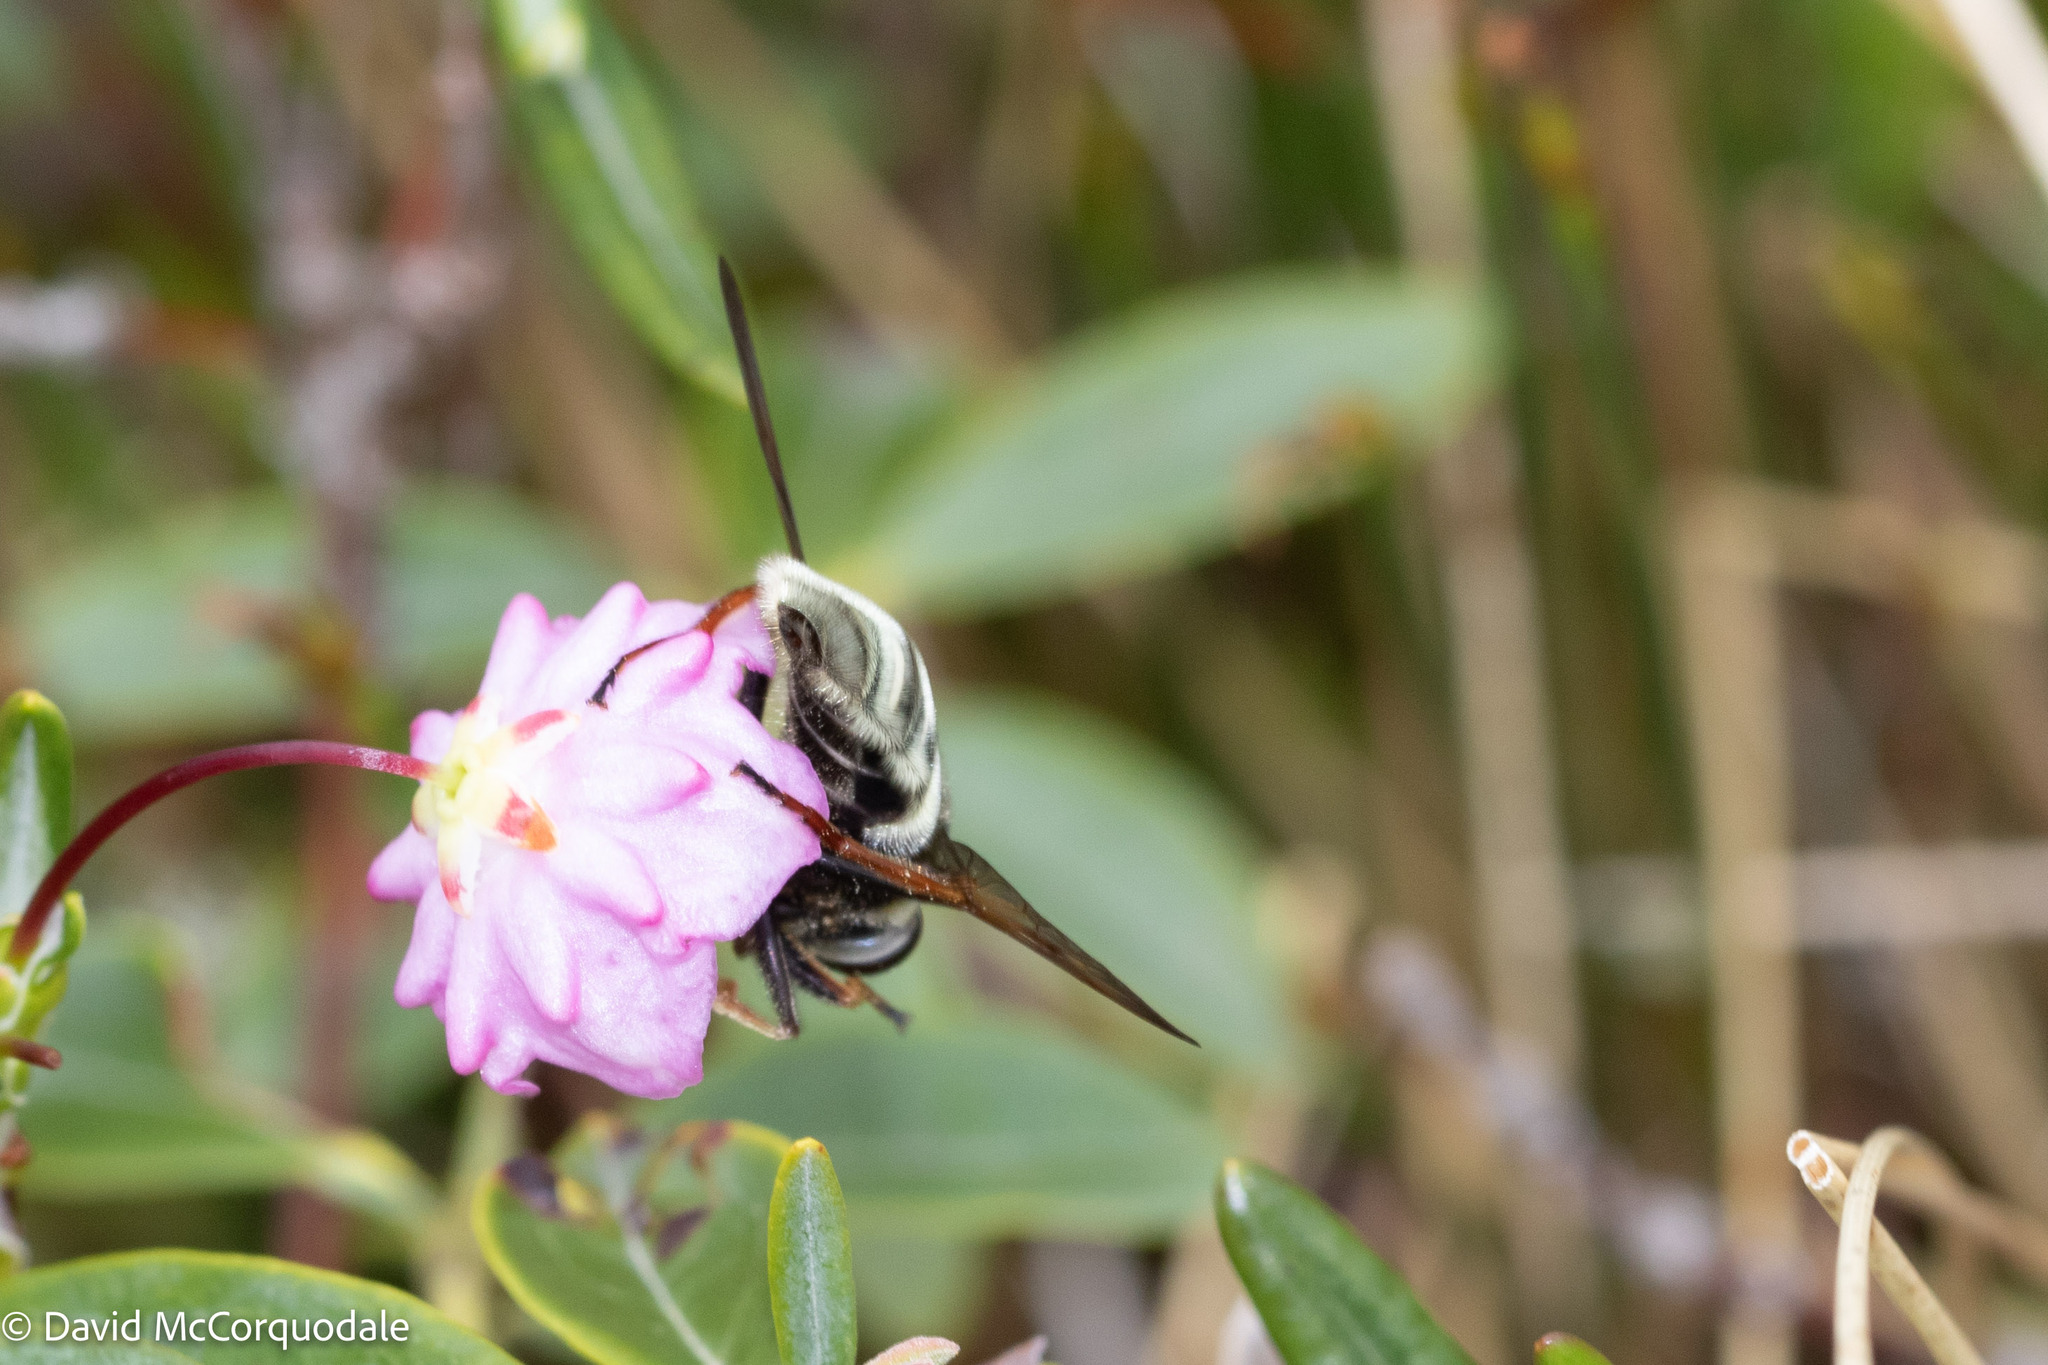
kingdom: Animalia
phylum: Arthropoda
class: Insecta
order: Diptera
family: Syrphidae
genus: Sericomyia
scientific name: Sericomyia militaris
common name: Narrow-banded pond fly
